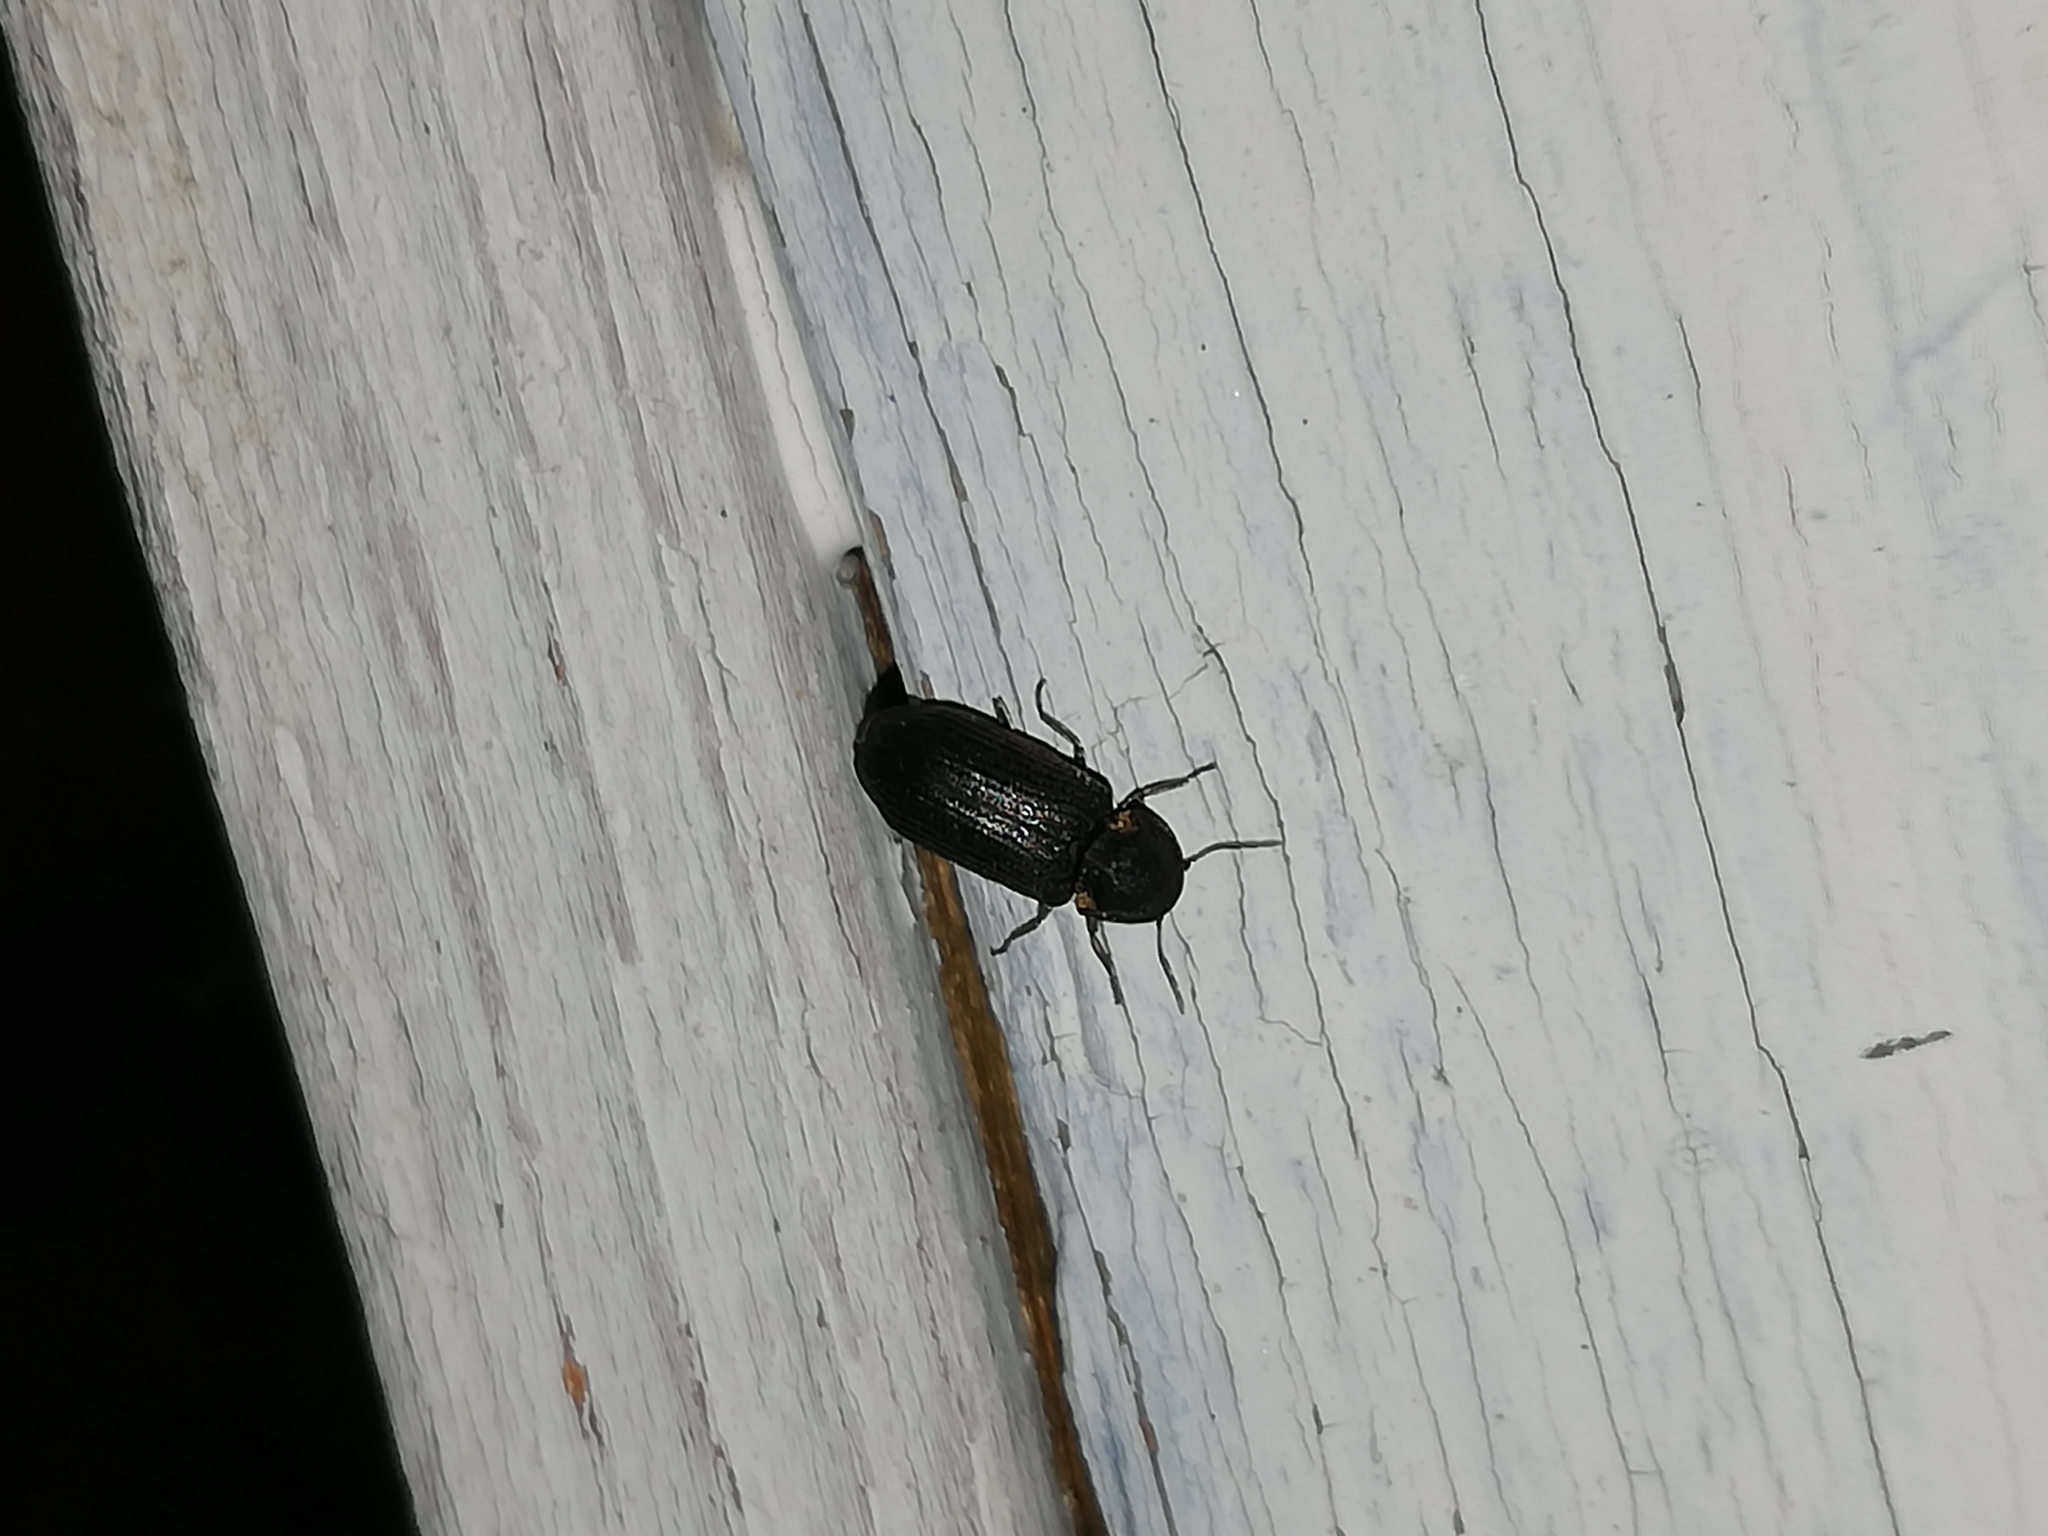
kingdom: Animalia
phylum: Arthropoda
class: Insecta
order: Coleoptera
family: Anobiidae
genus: Hadrobregmus
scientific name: Hadrobregmus pertinax
